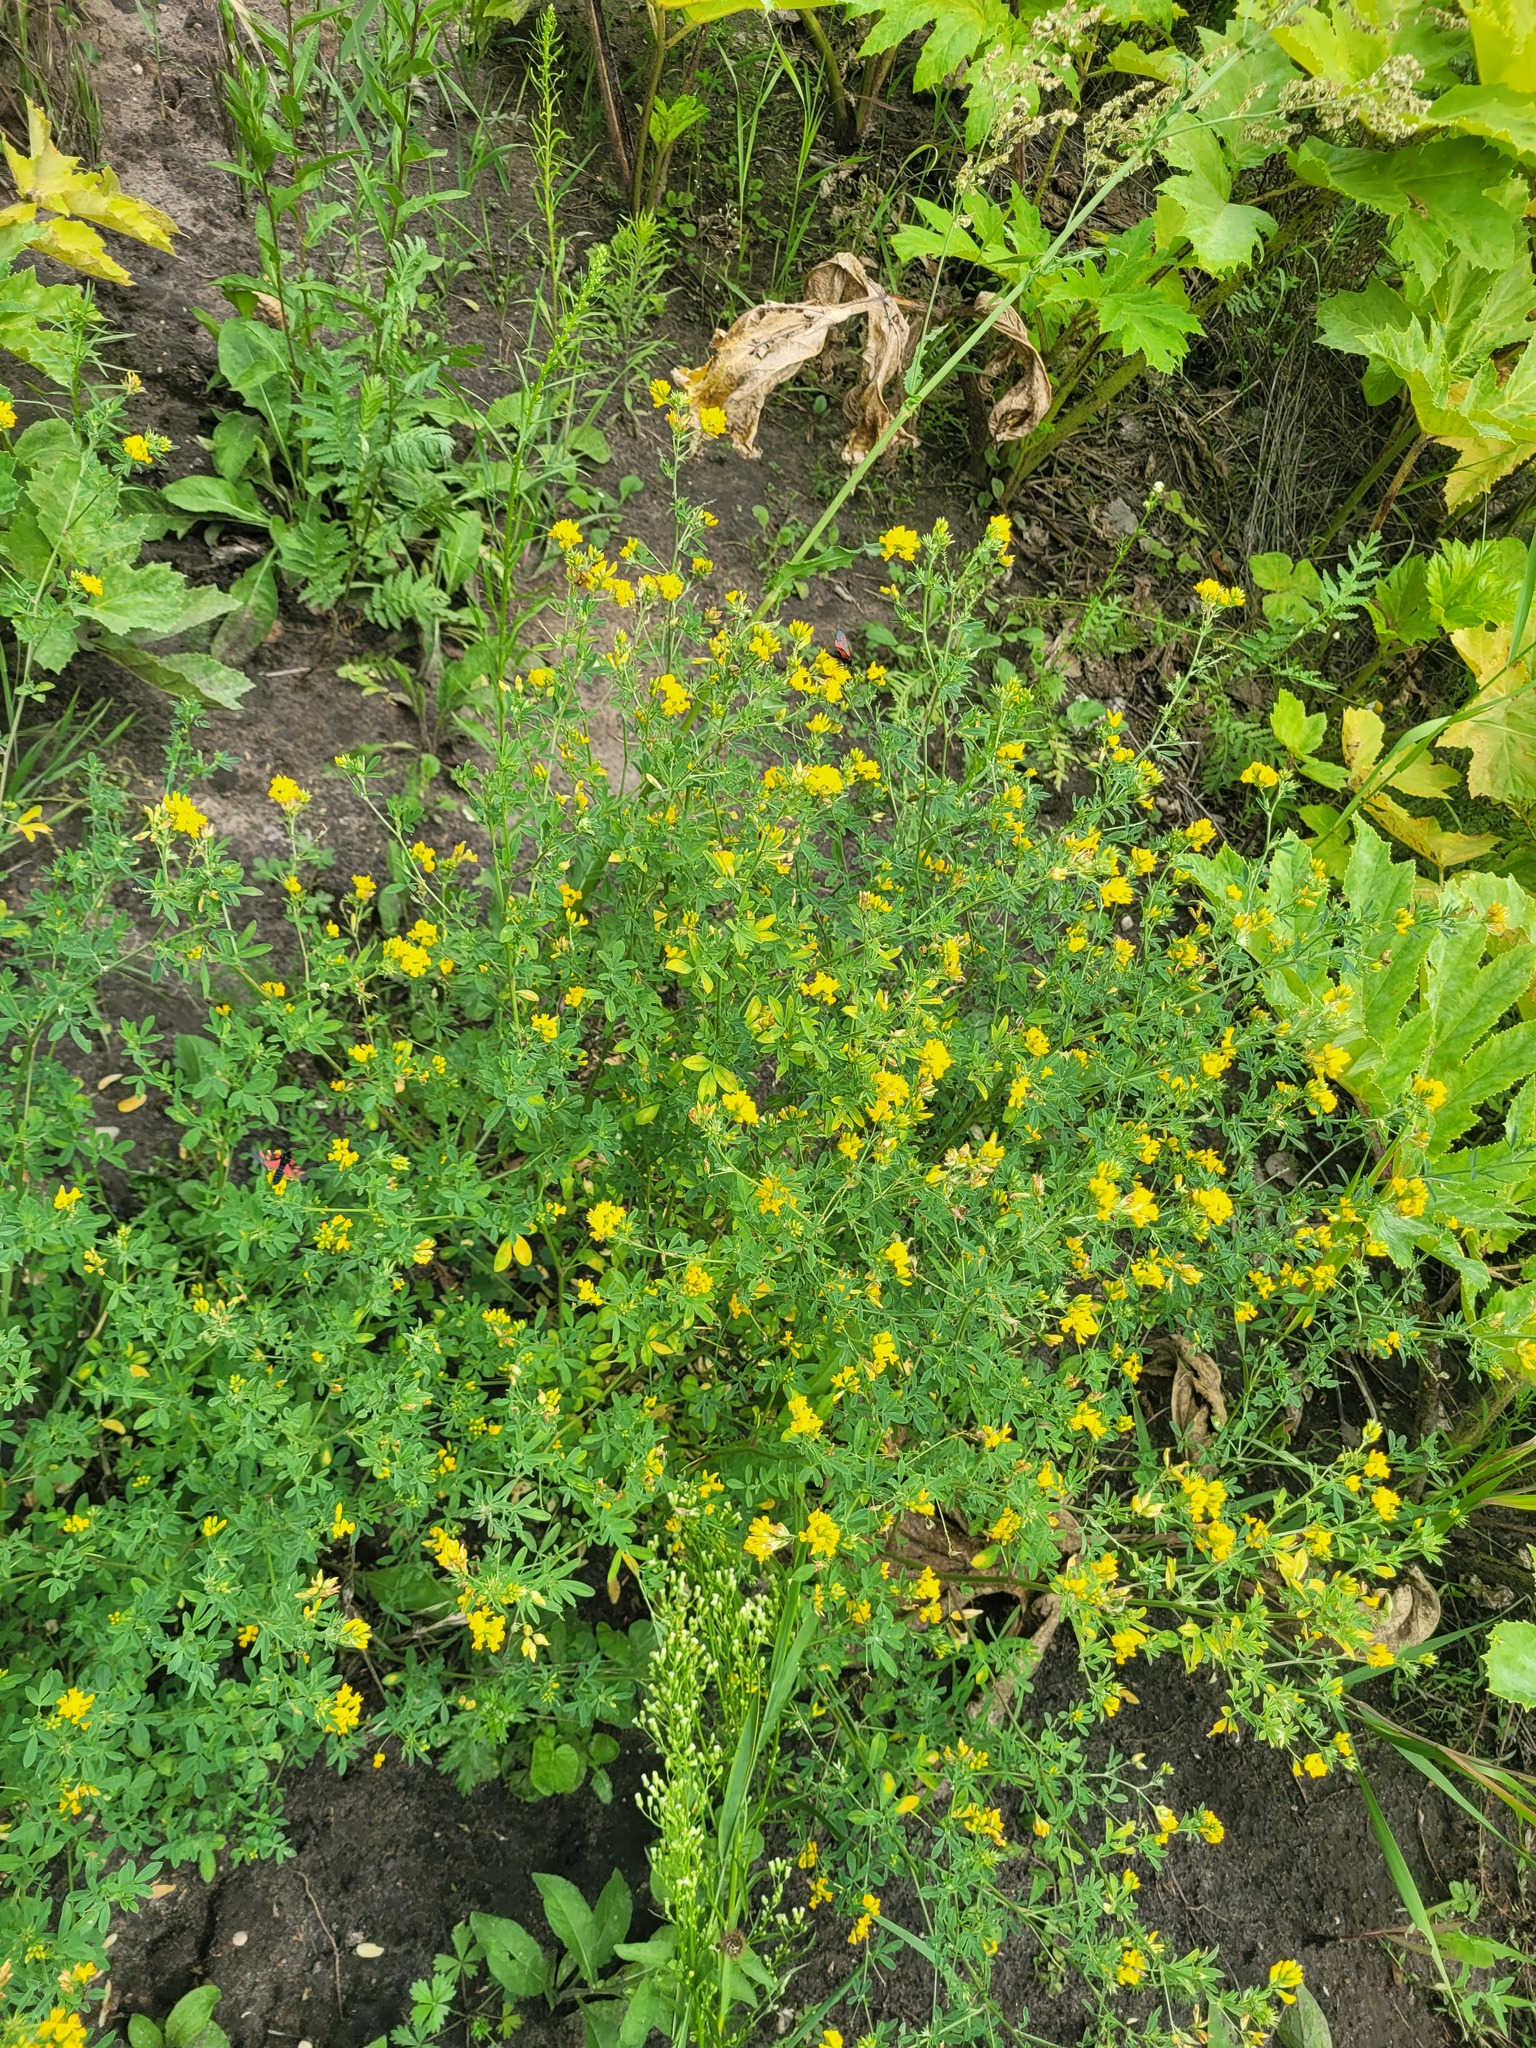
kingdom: Plantae
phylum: Tracheophyta
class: Magnoliopsida
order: Fabales
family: Fabaceae
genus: Medicago
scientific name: Medicago falcata
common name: Sickle medick
